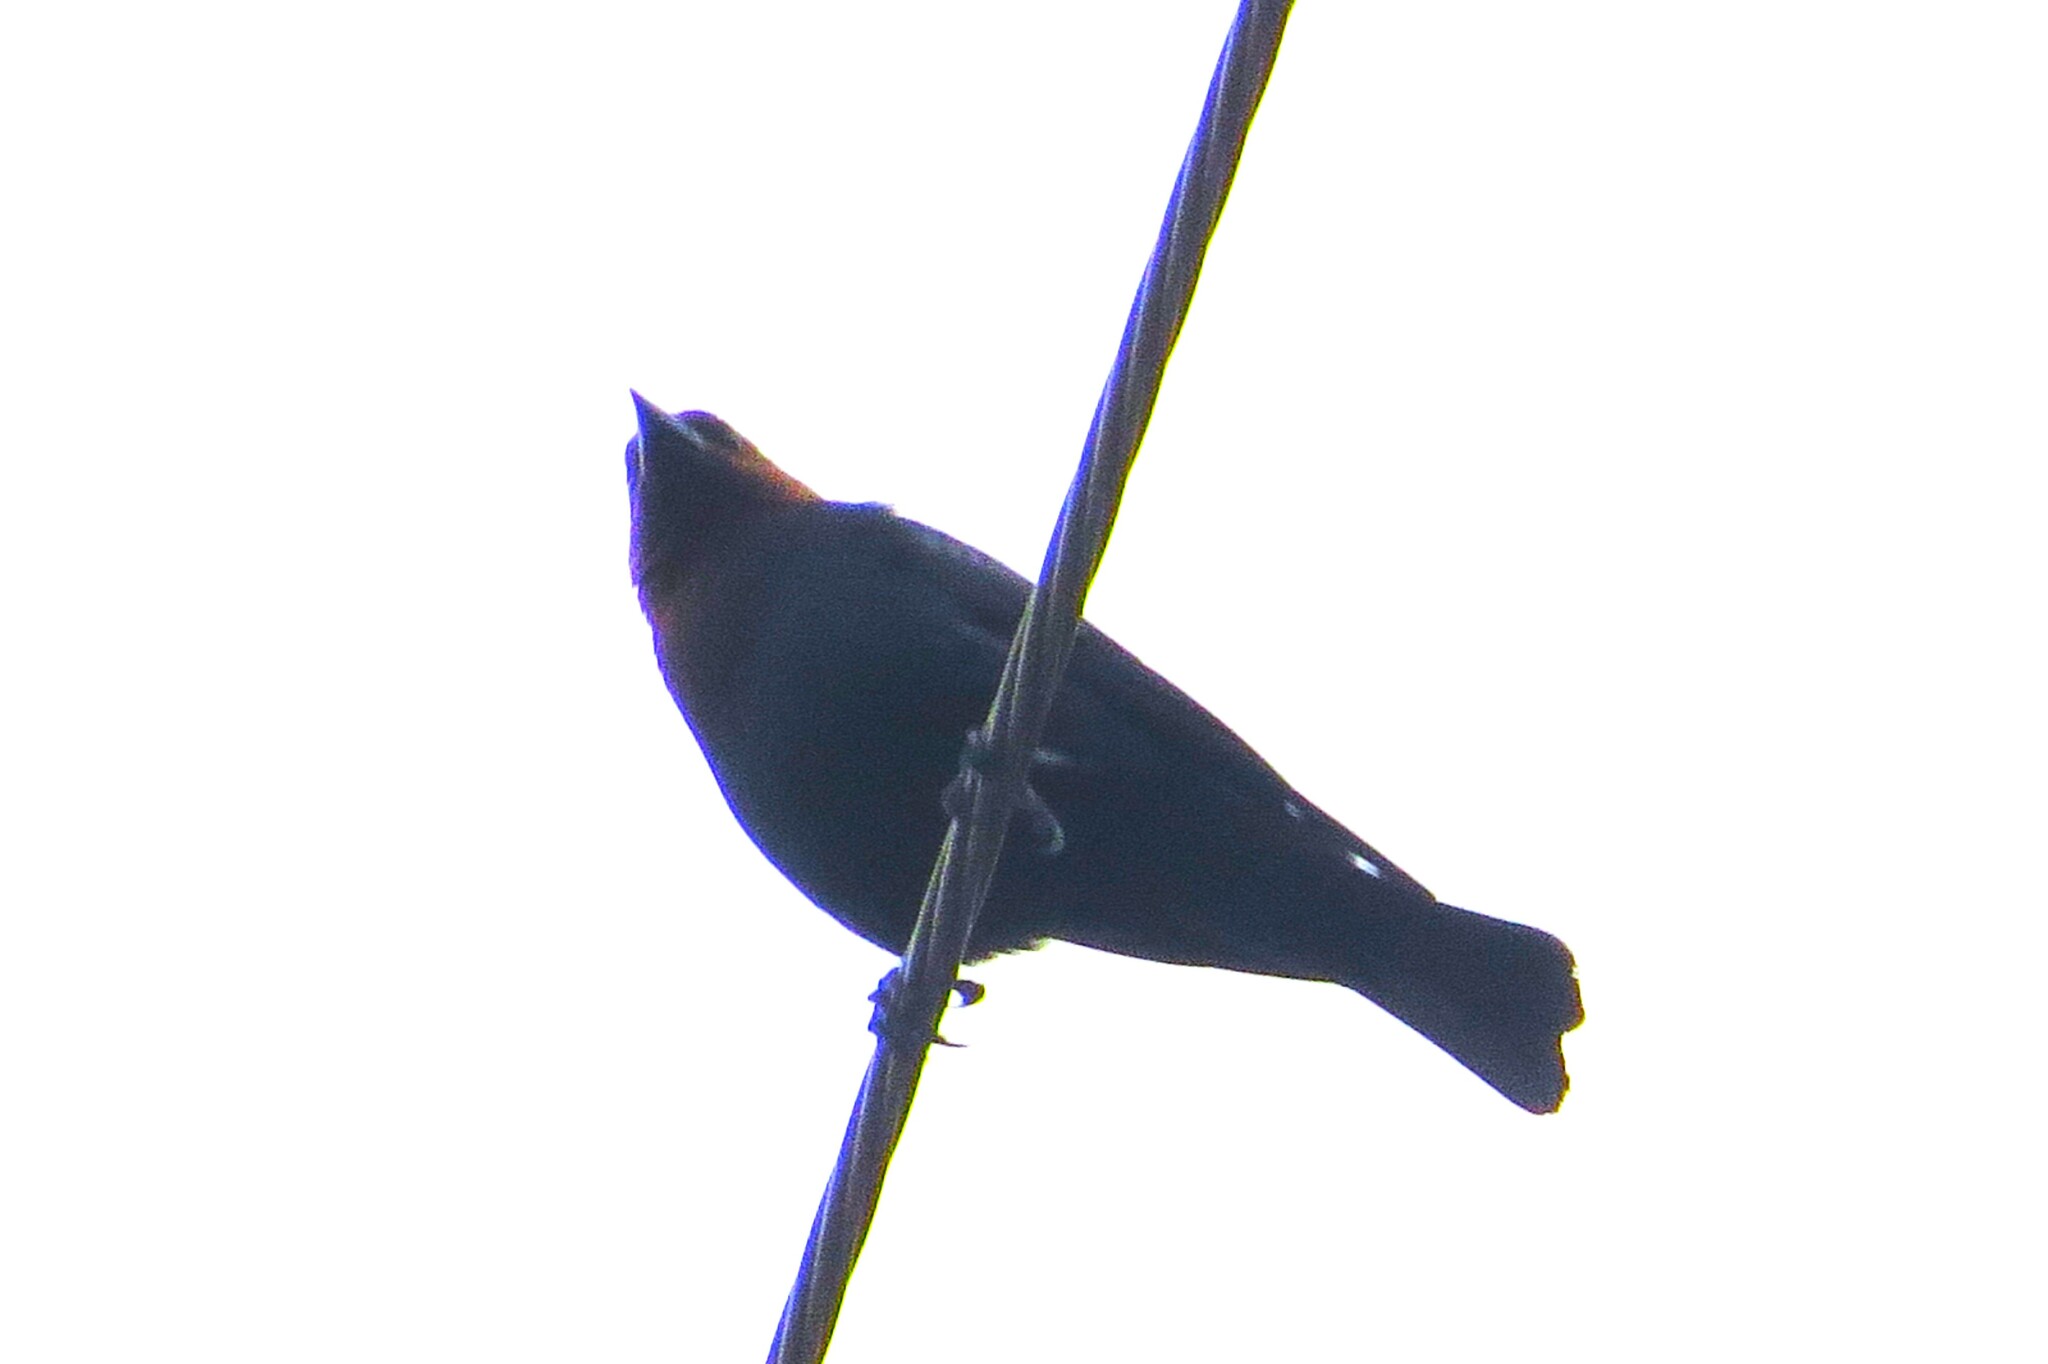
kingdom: Animalia
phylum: Chordata
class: Aves
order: Passeriformes
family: Icteridae
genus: Molothrus
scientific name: Molothrus ater
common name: Brown-headed cowbird
